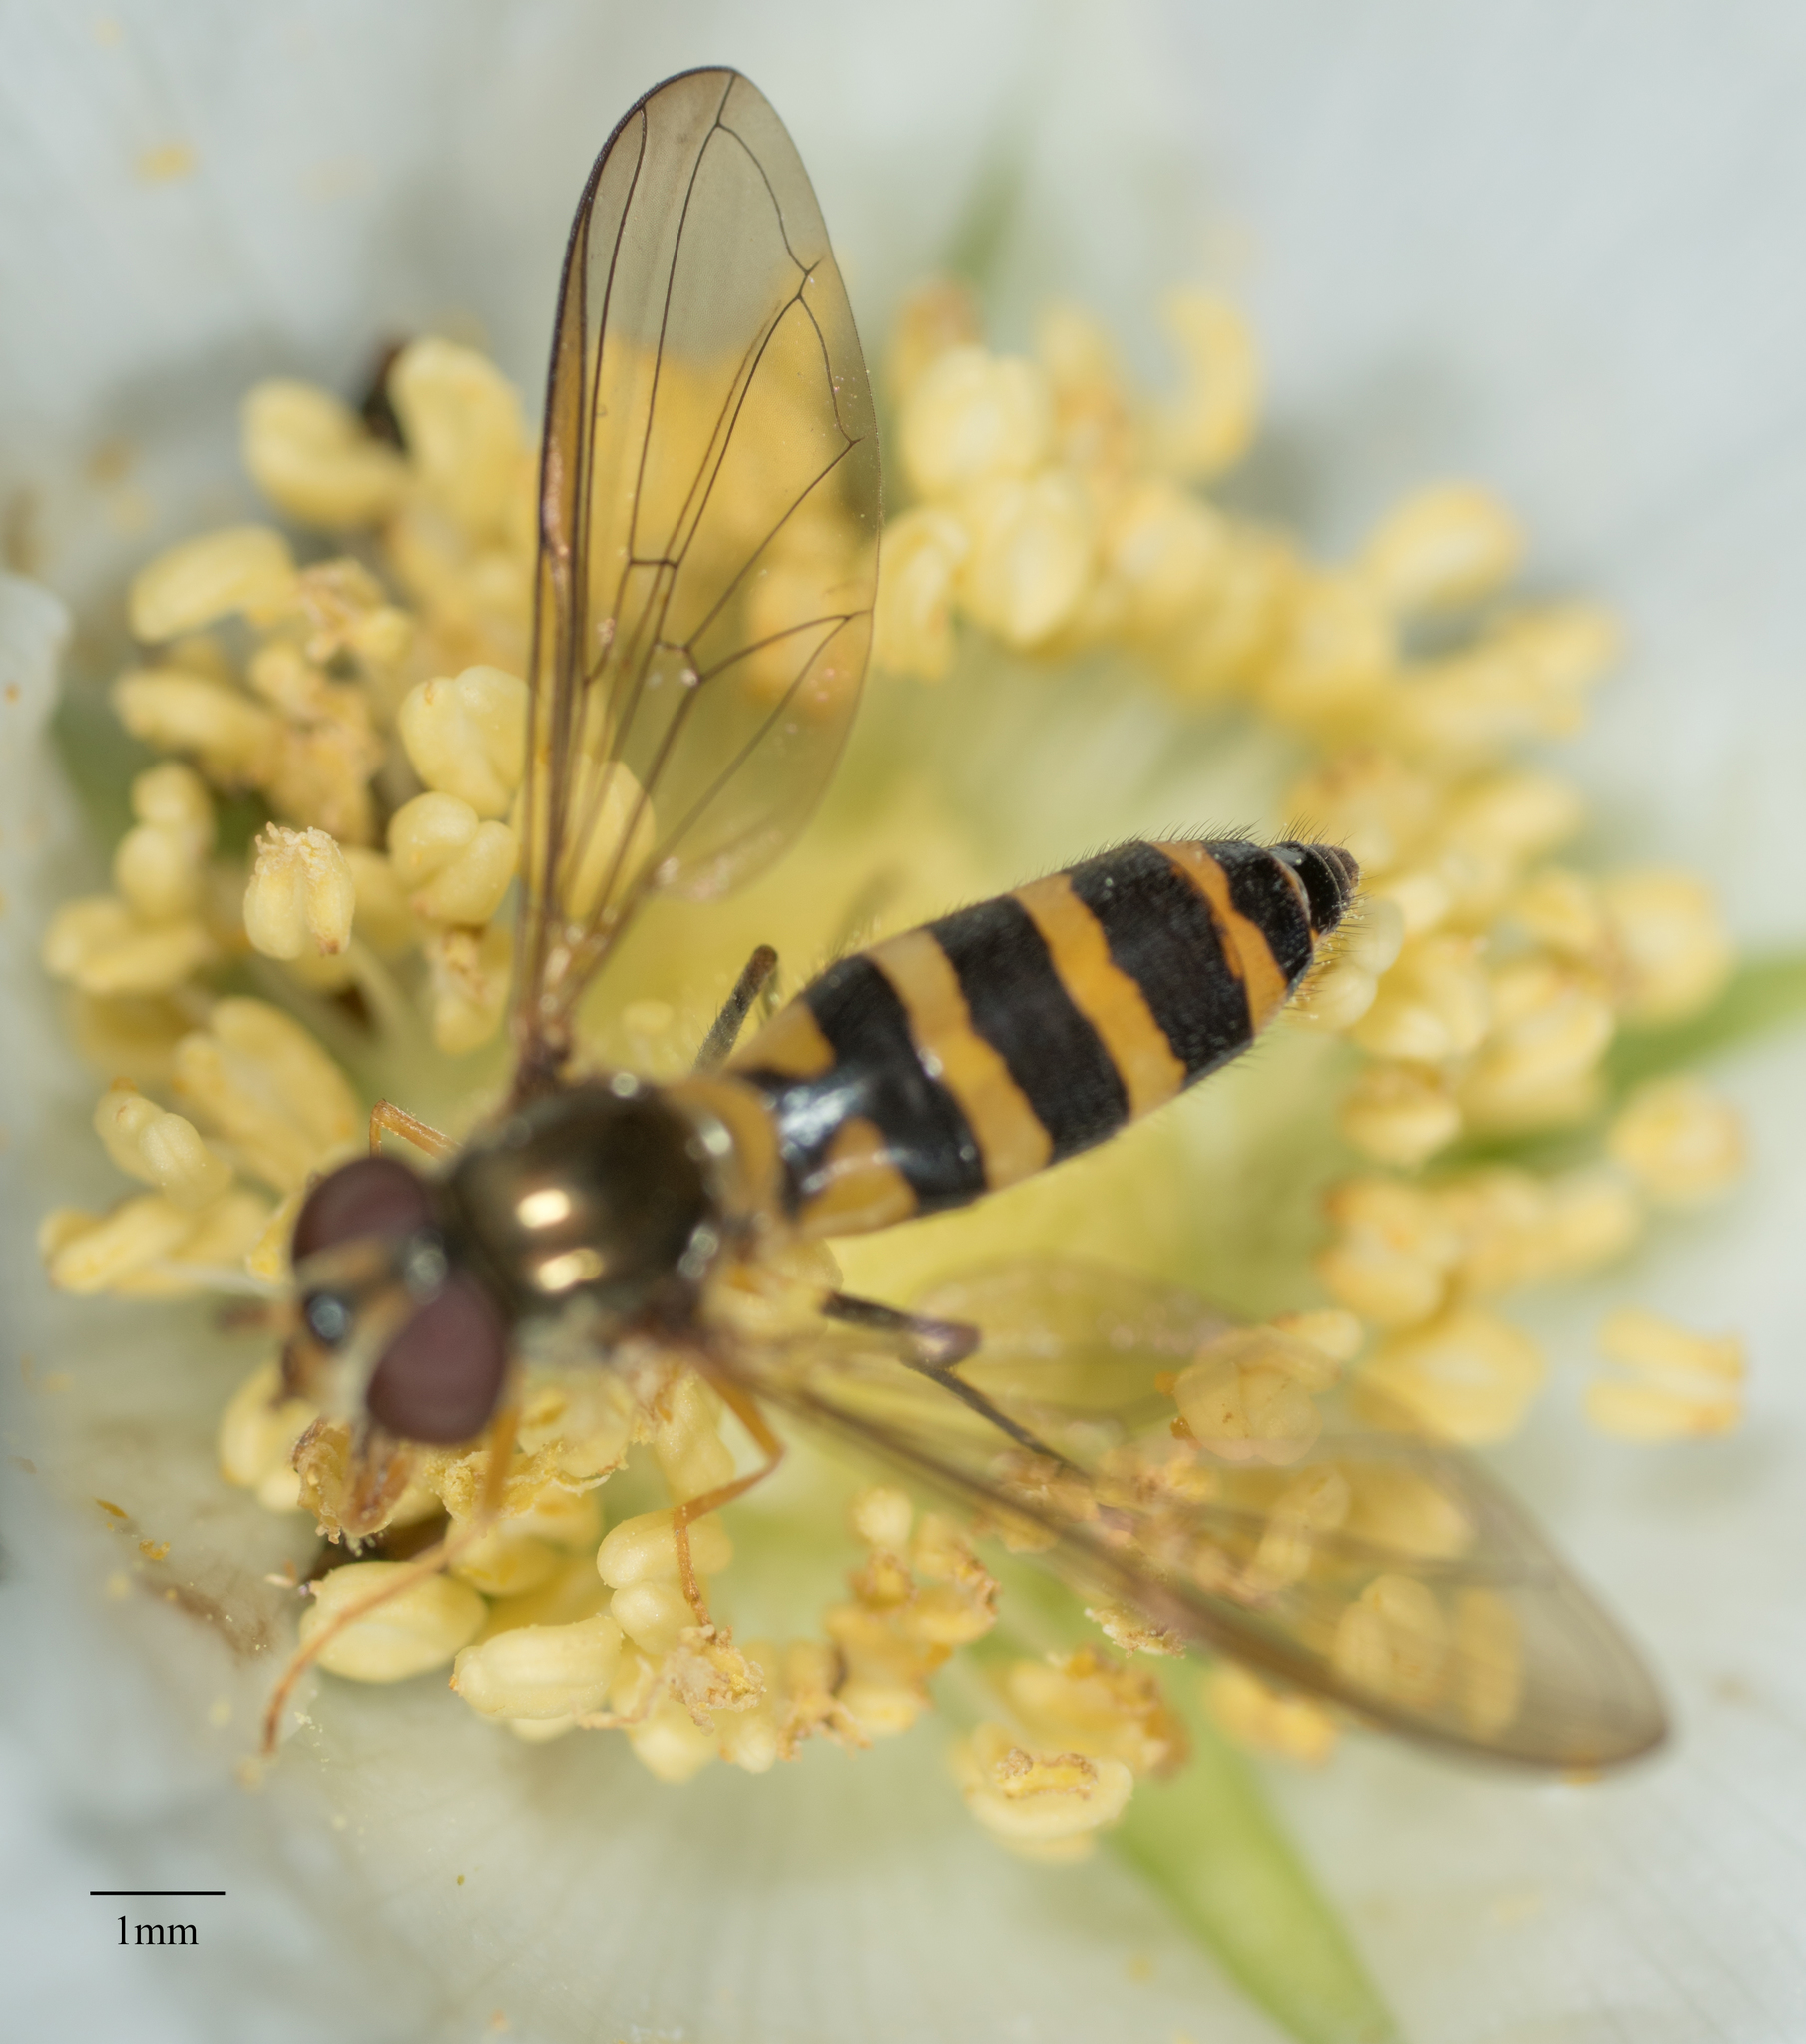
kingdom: Animalia
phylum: Arthropoda
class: Insecta
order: Diptera
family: Syrphidae
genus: Meliscaeva
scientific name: Meliscaeva cinctella
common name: American thintail fly
